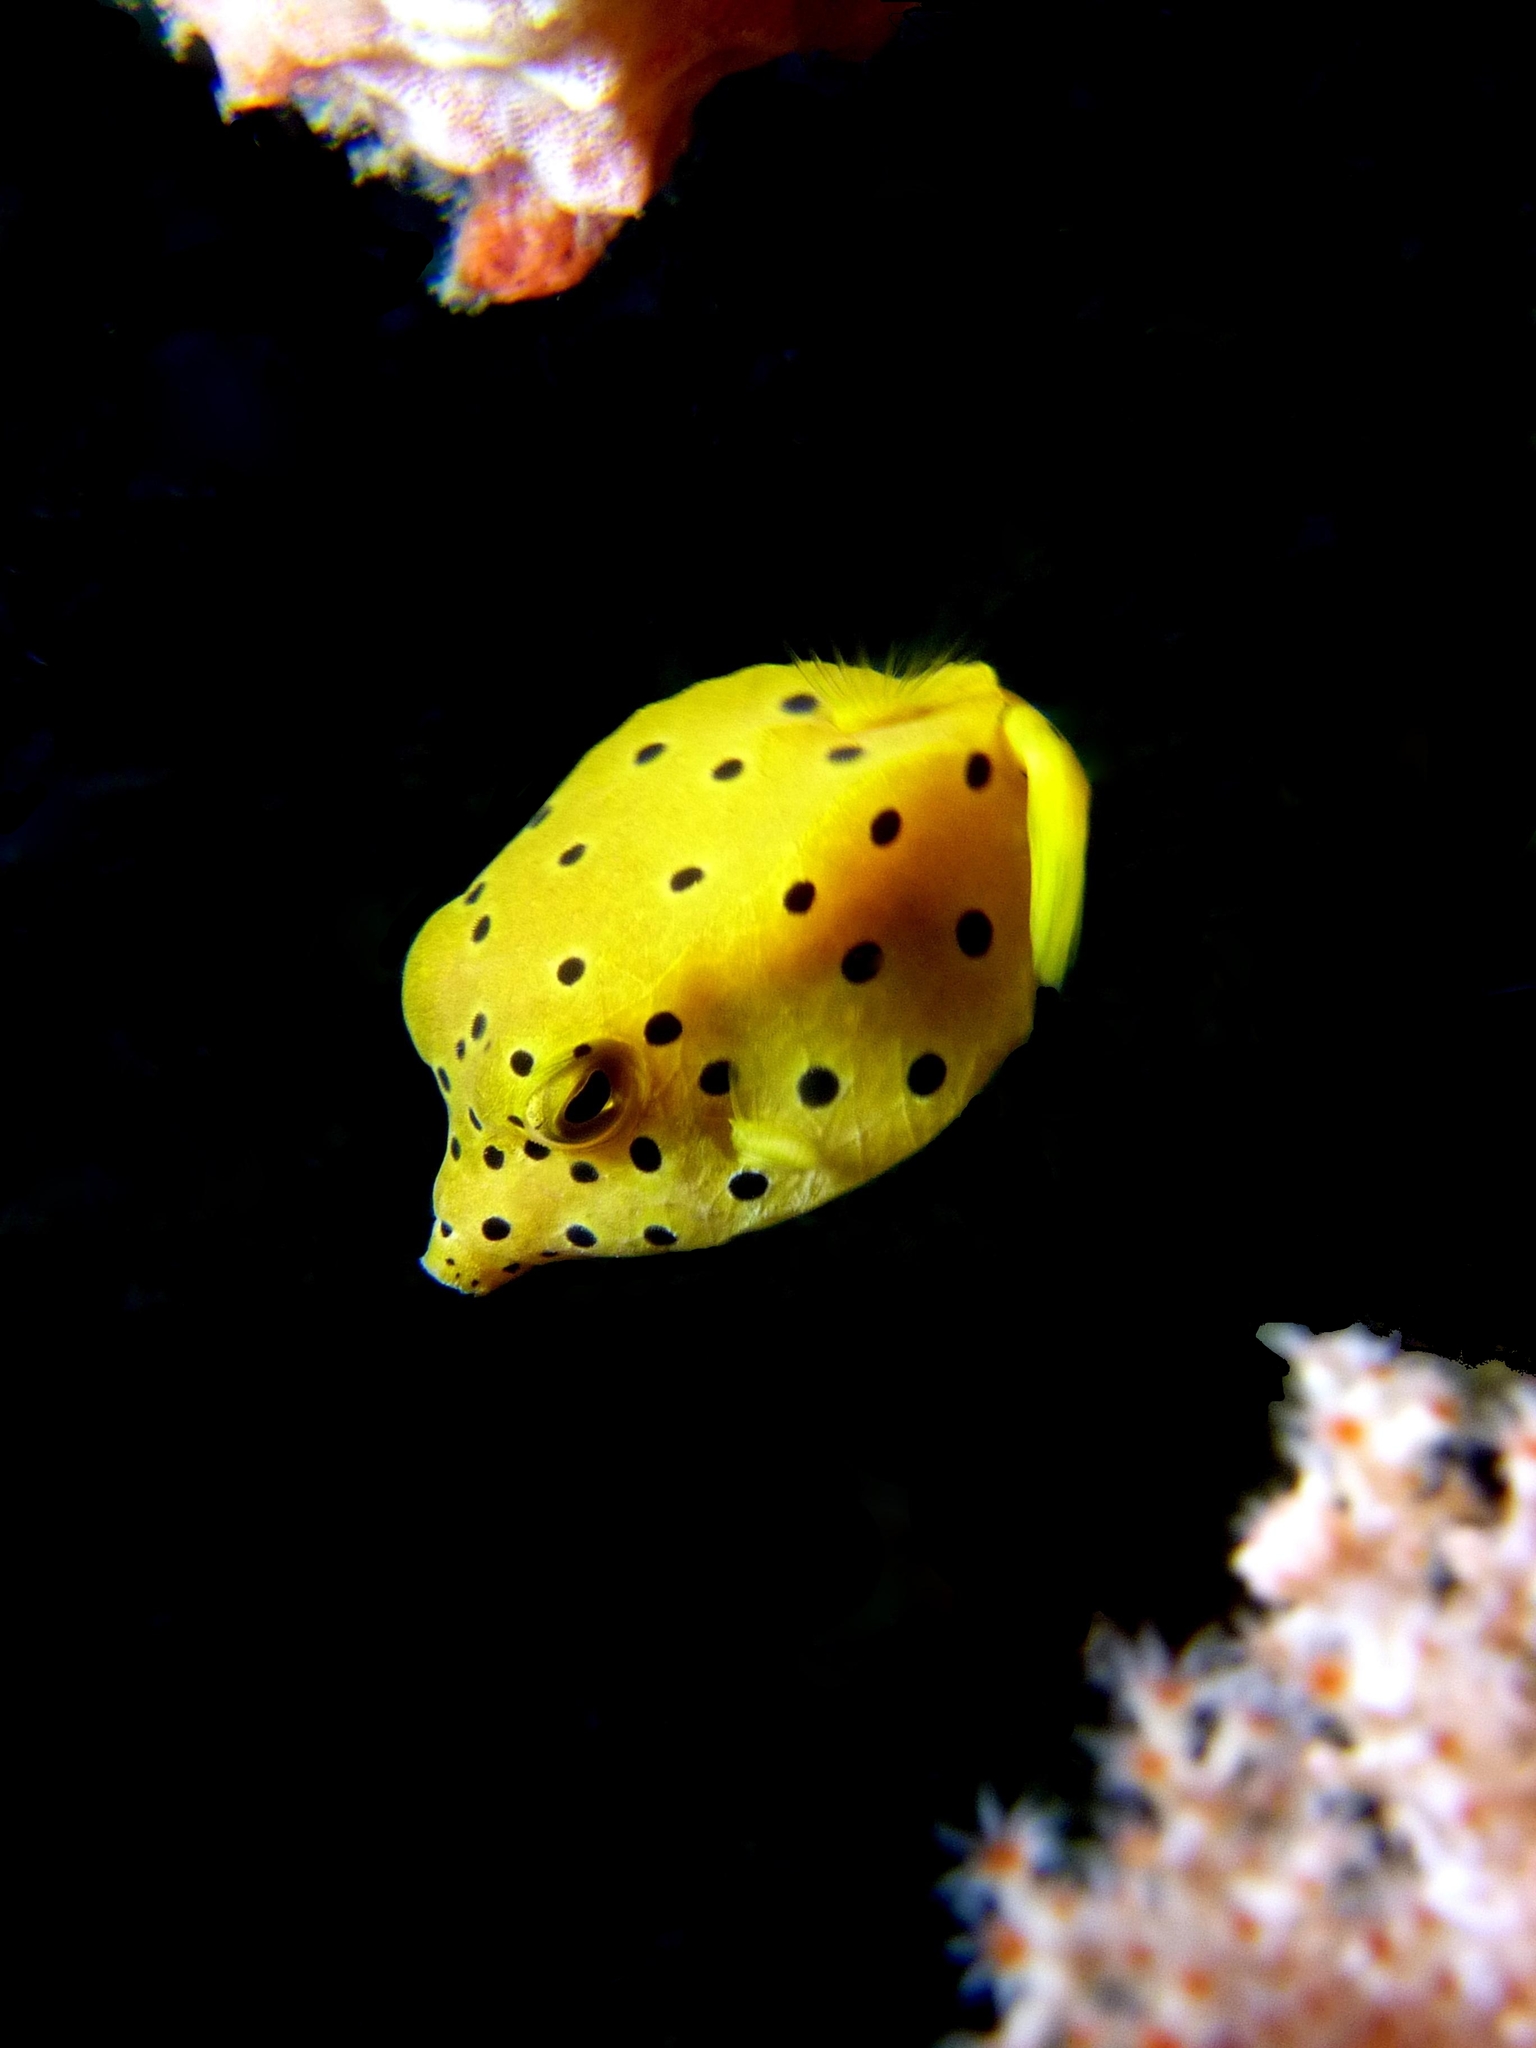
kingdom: Animalia
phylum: Chordata
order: Tetraodontiformes
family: Ostraciidae
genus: Ostracion
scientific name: Ostracion cubicus
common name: Cube trunkfish
